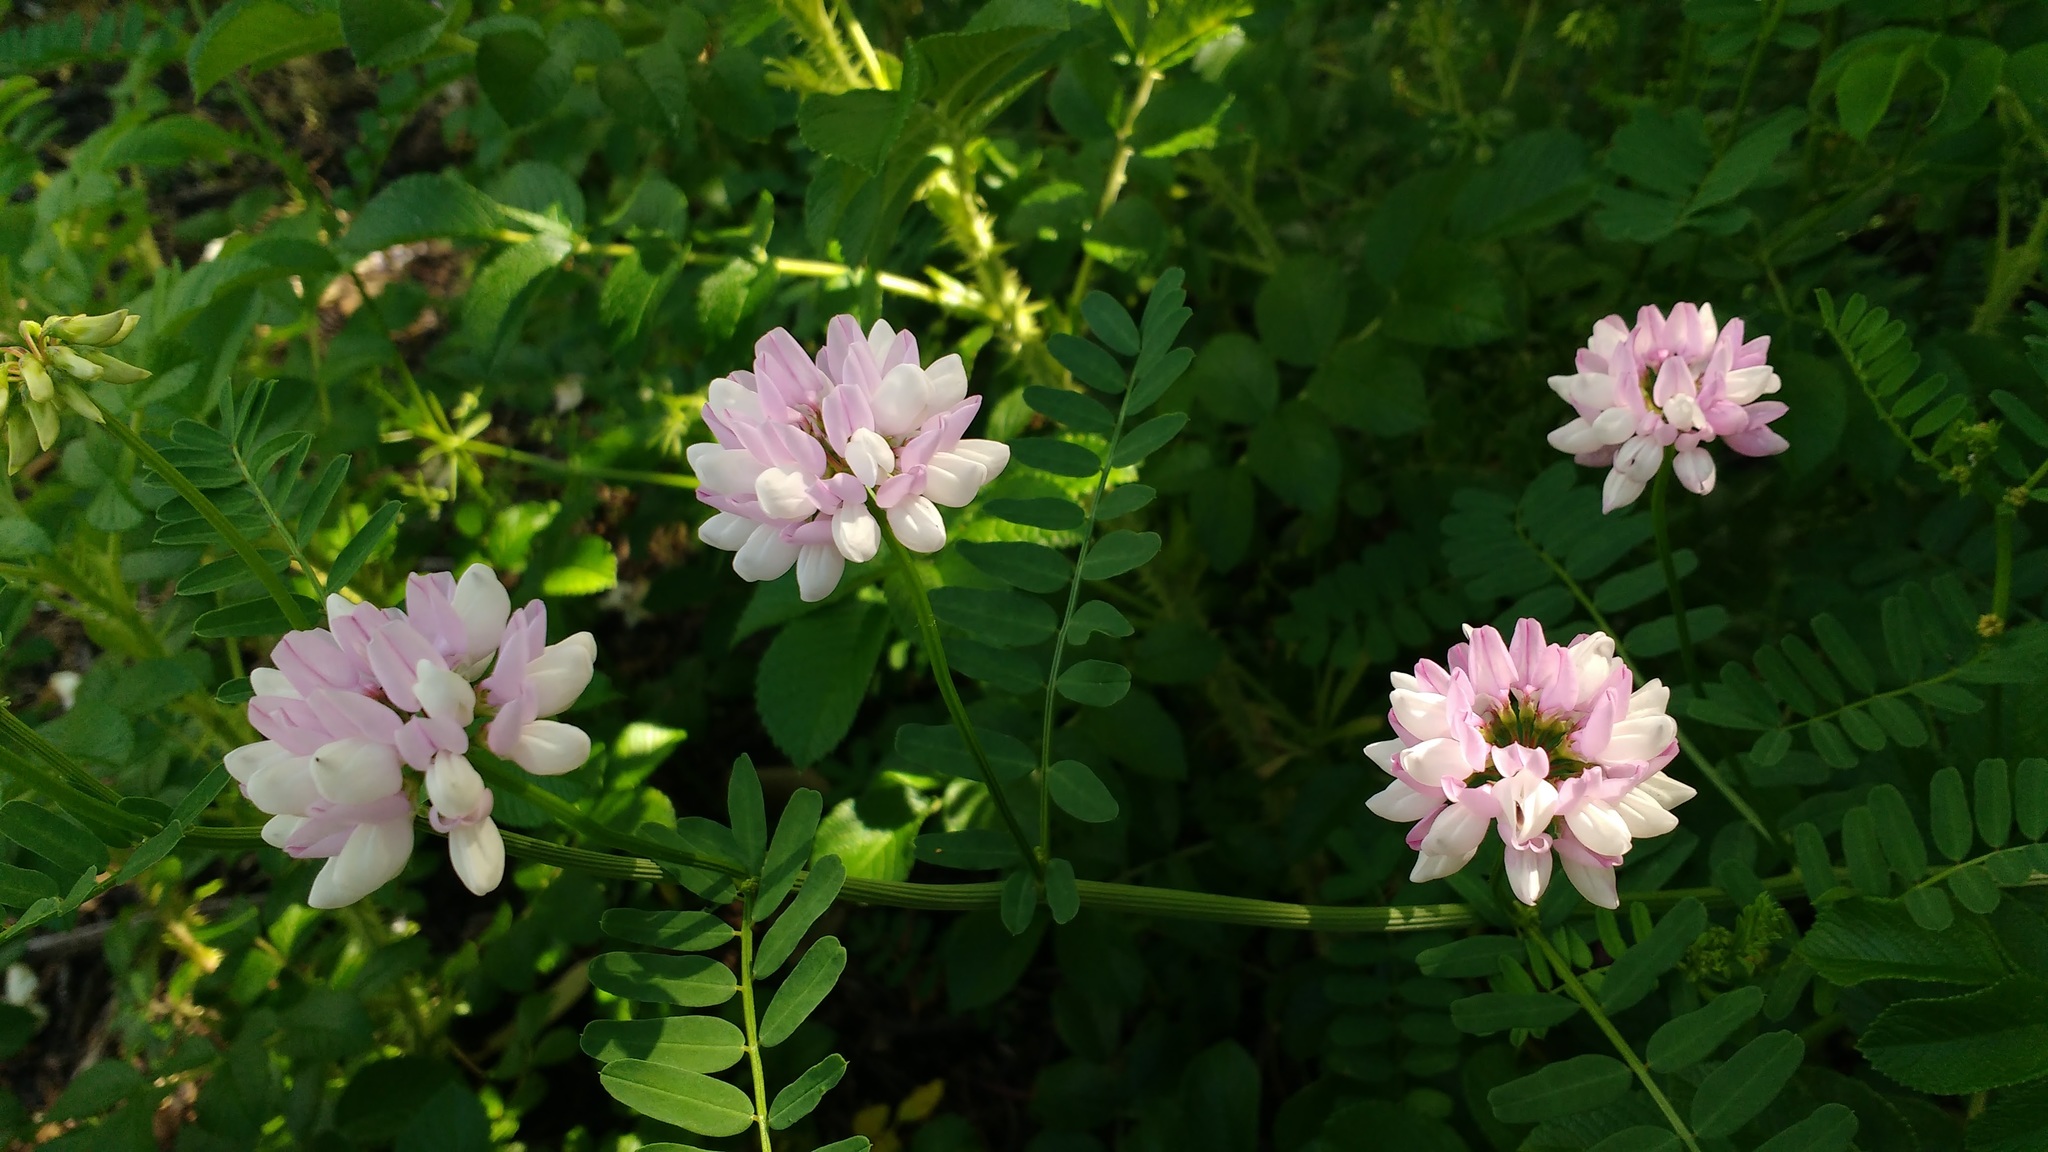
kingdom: Plantae
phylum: Tracheophyta
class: Magnoliopsida
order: Fabales
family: Fabaceae
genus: Coronilla
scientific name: Coronilla varia
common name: Crownvetch
